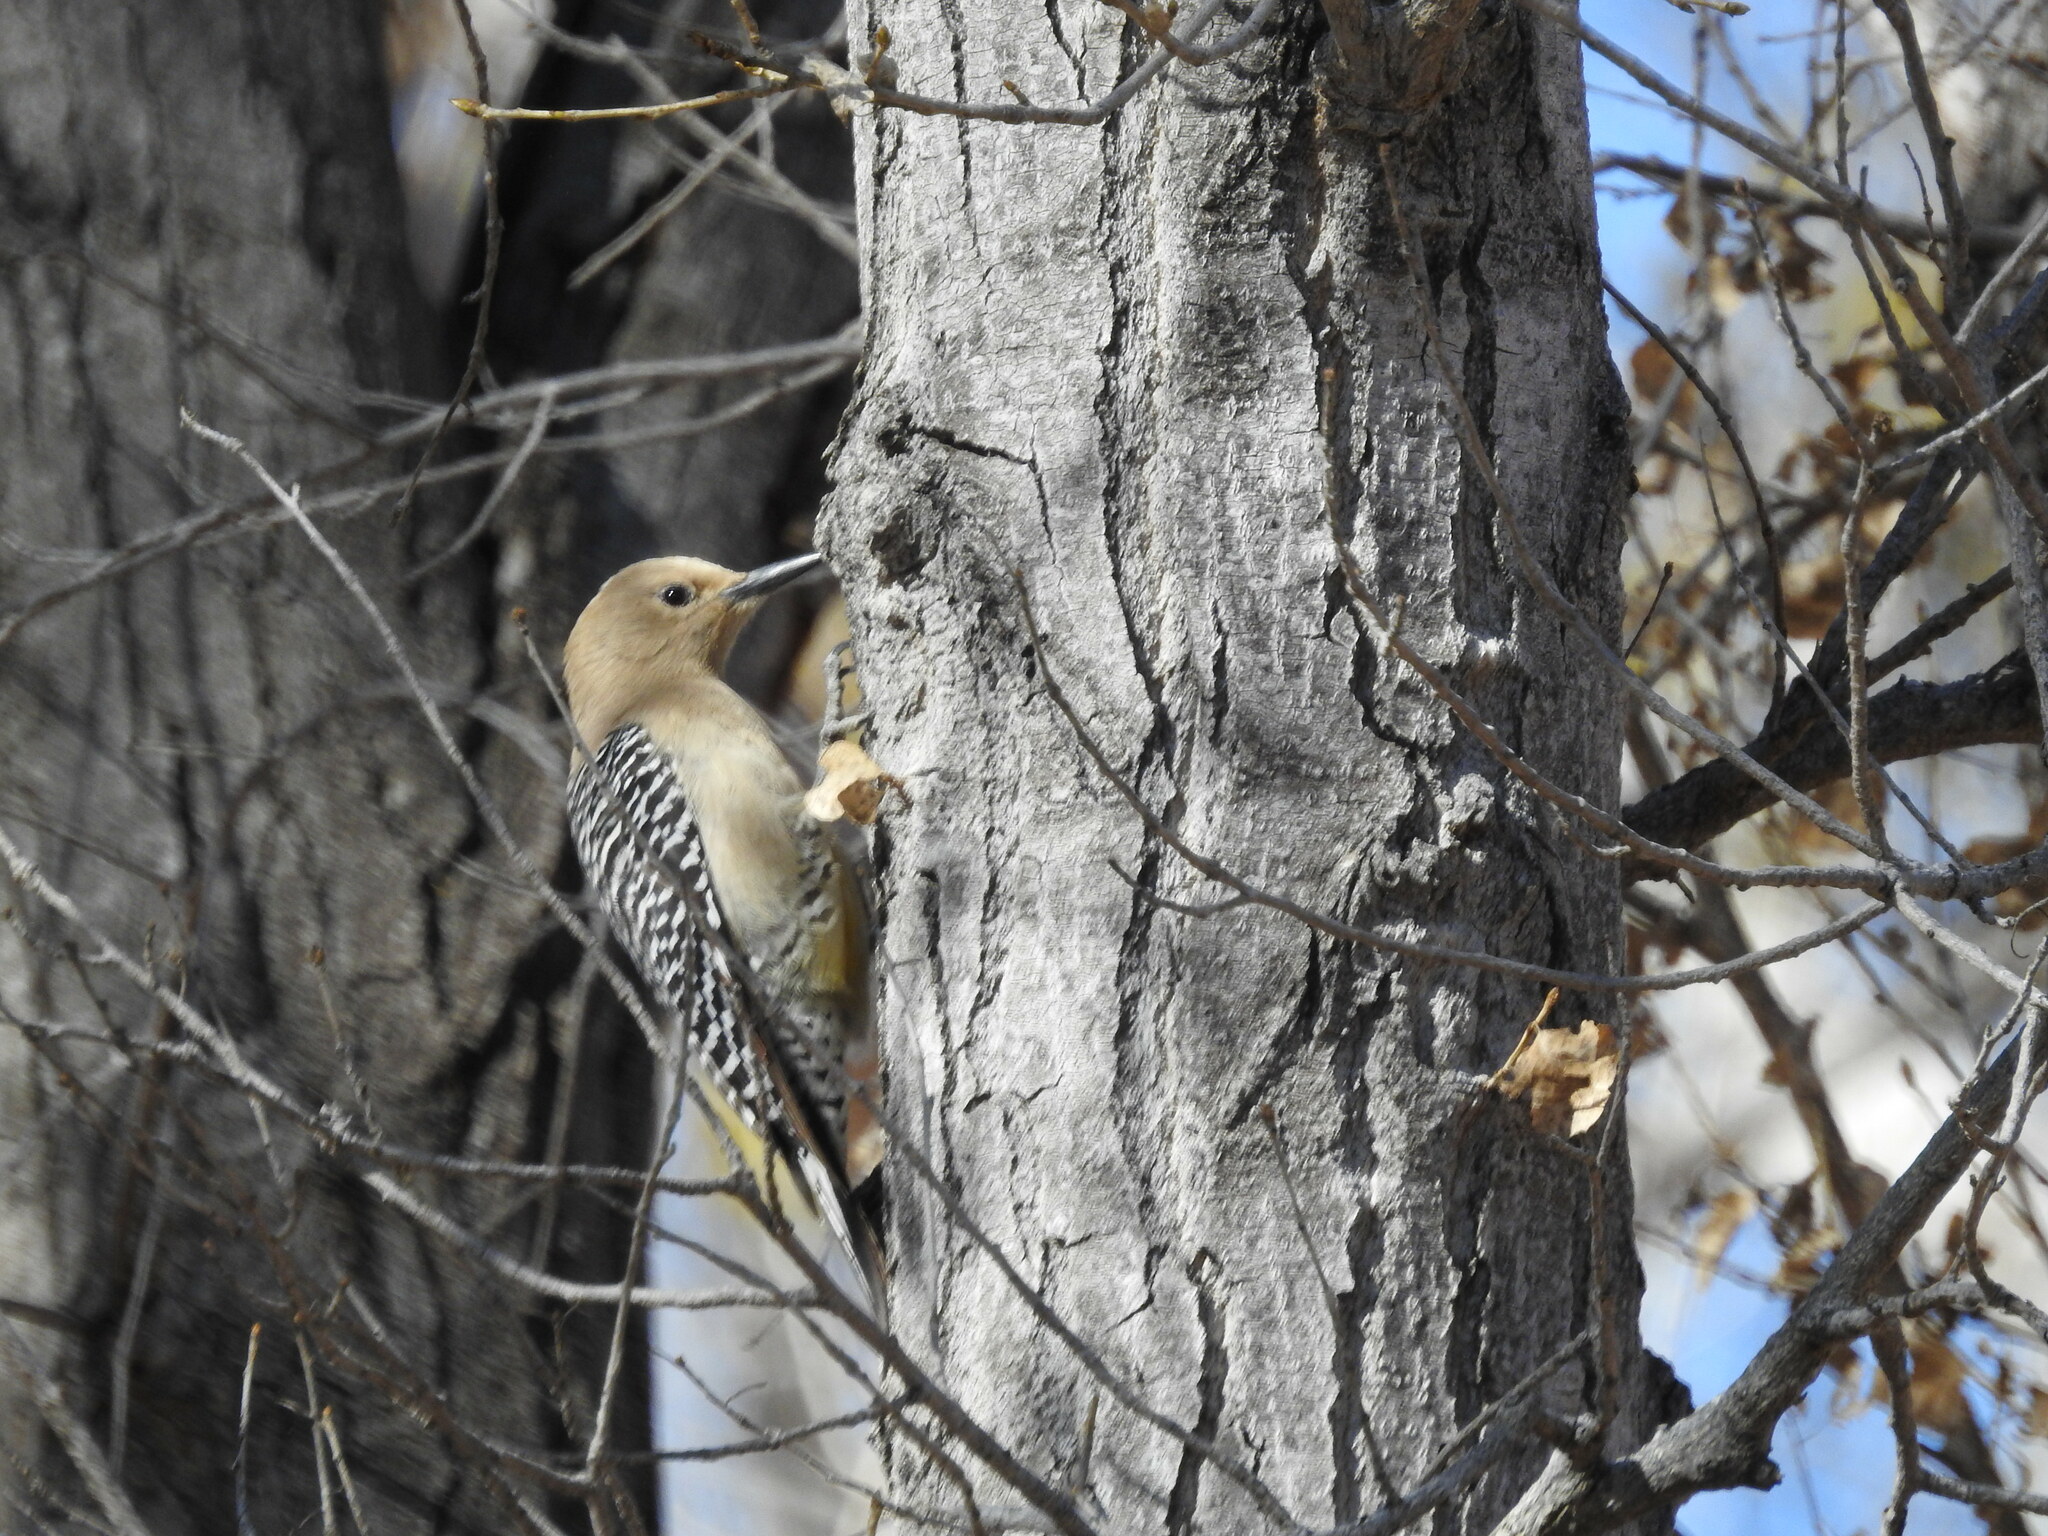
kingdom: Animalia
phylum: Chordata
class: Aves
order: Piciformes
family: Picidae
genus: Melanerpes
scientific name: Melanerpes uropygialis
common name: Gila woodpecker
